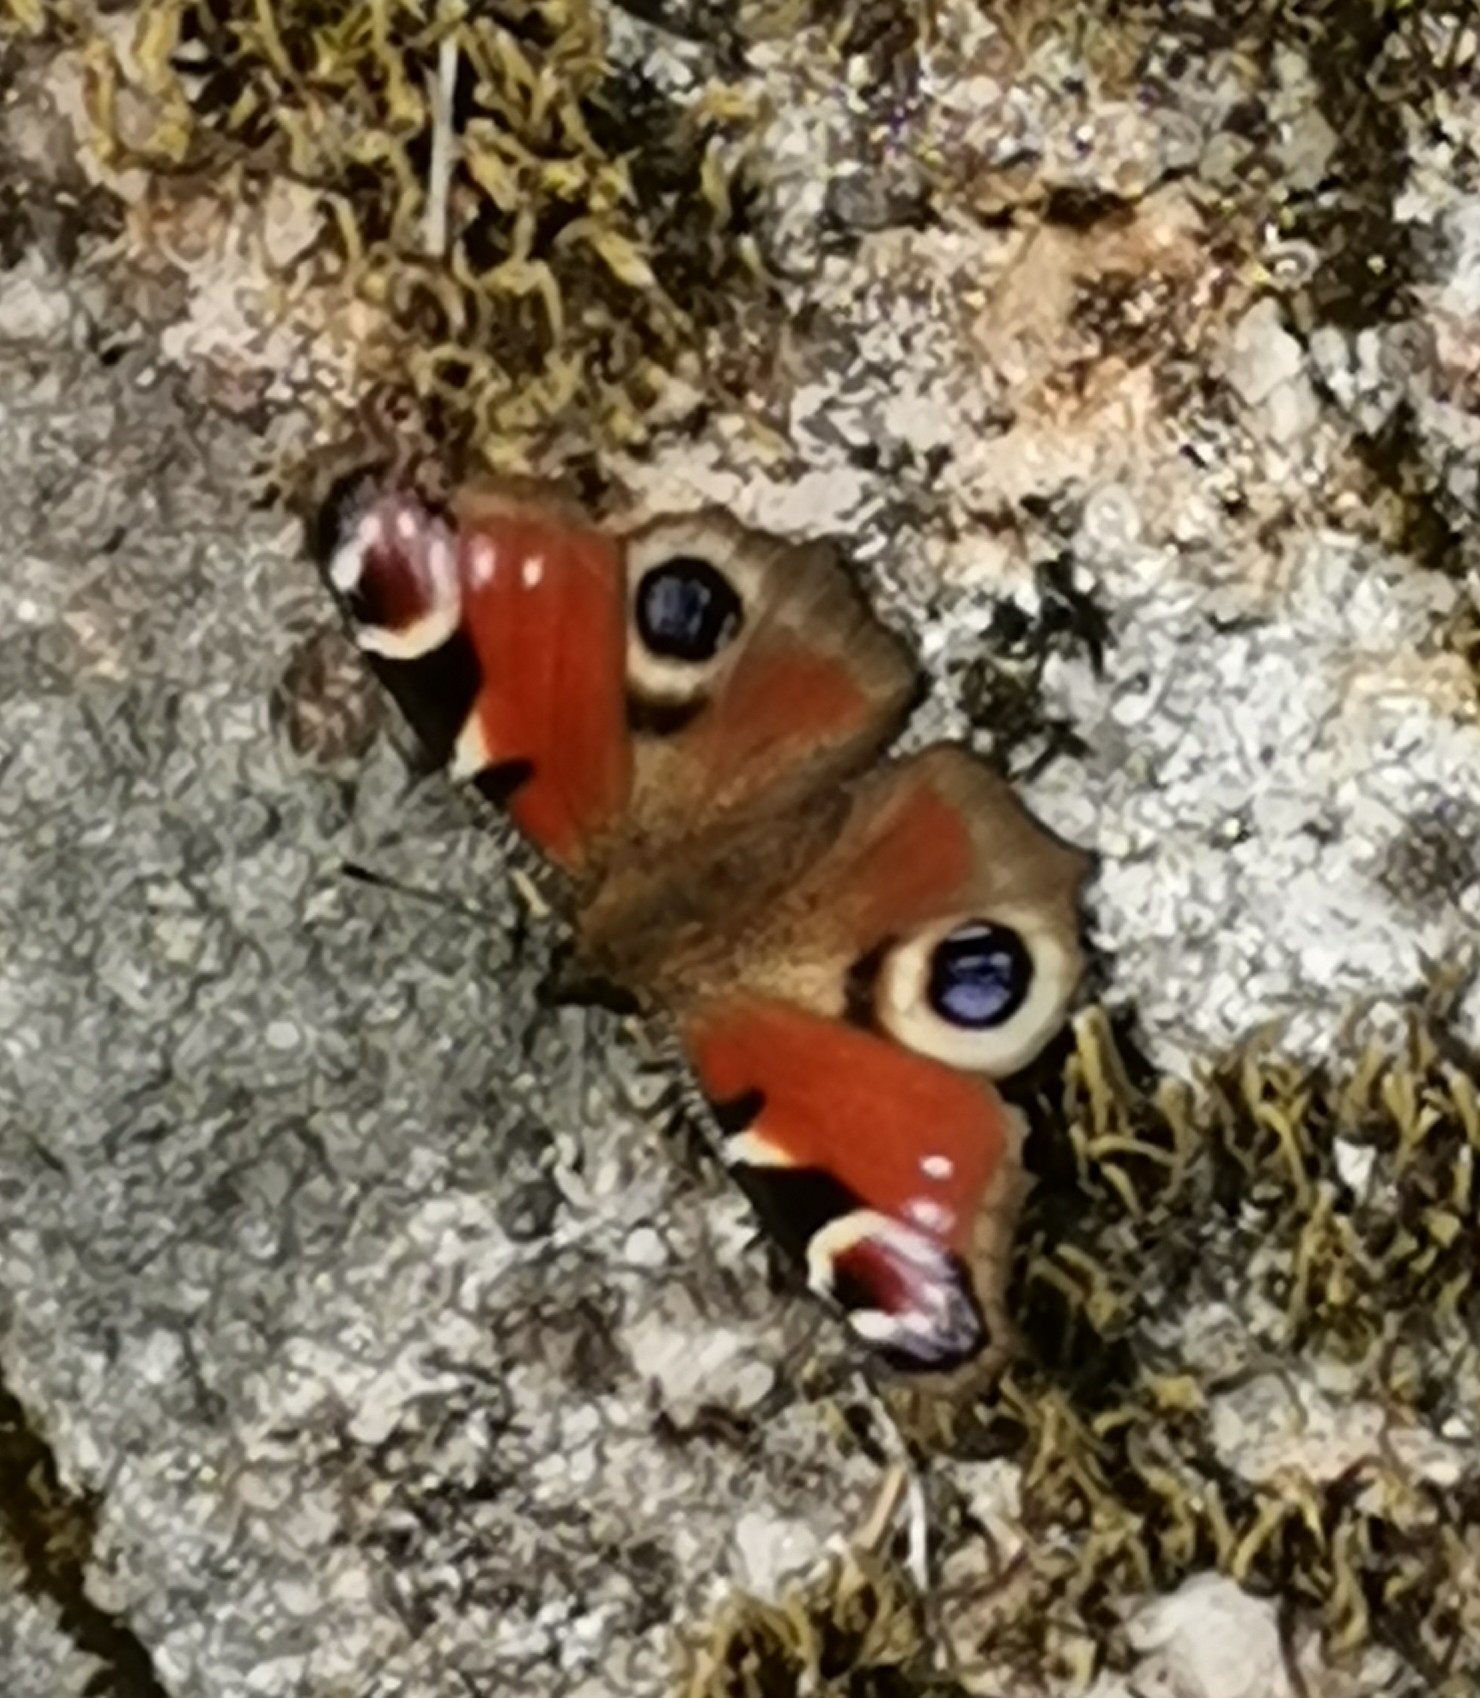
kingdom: Animalia
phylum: Arthropoda
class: Insecta
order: Lepidoptera
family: Nymphalidae
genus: Aglais
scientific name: Aglais io
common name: Peacock
